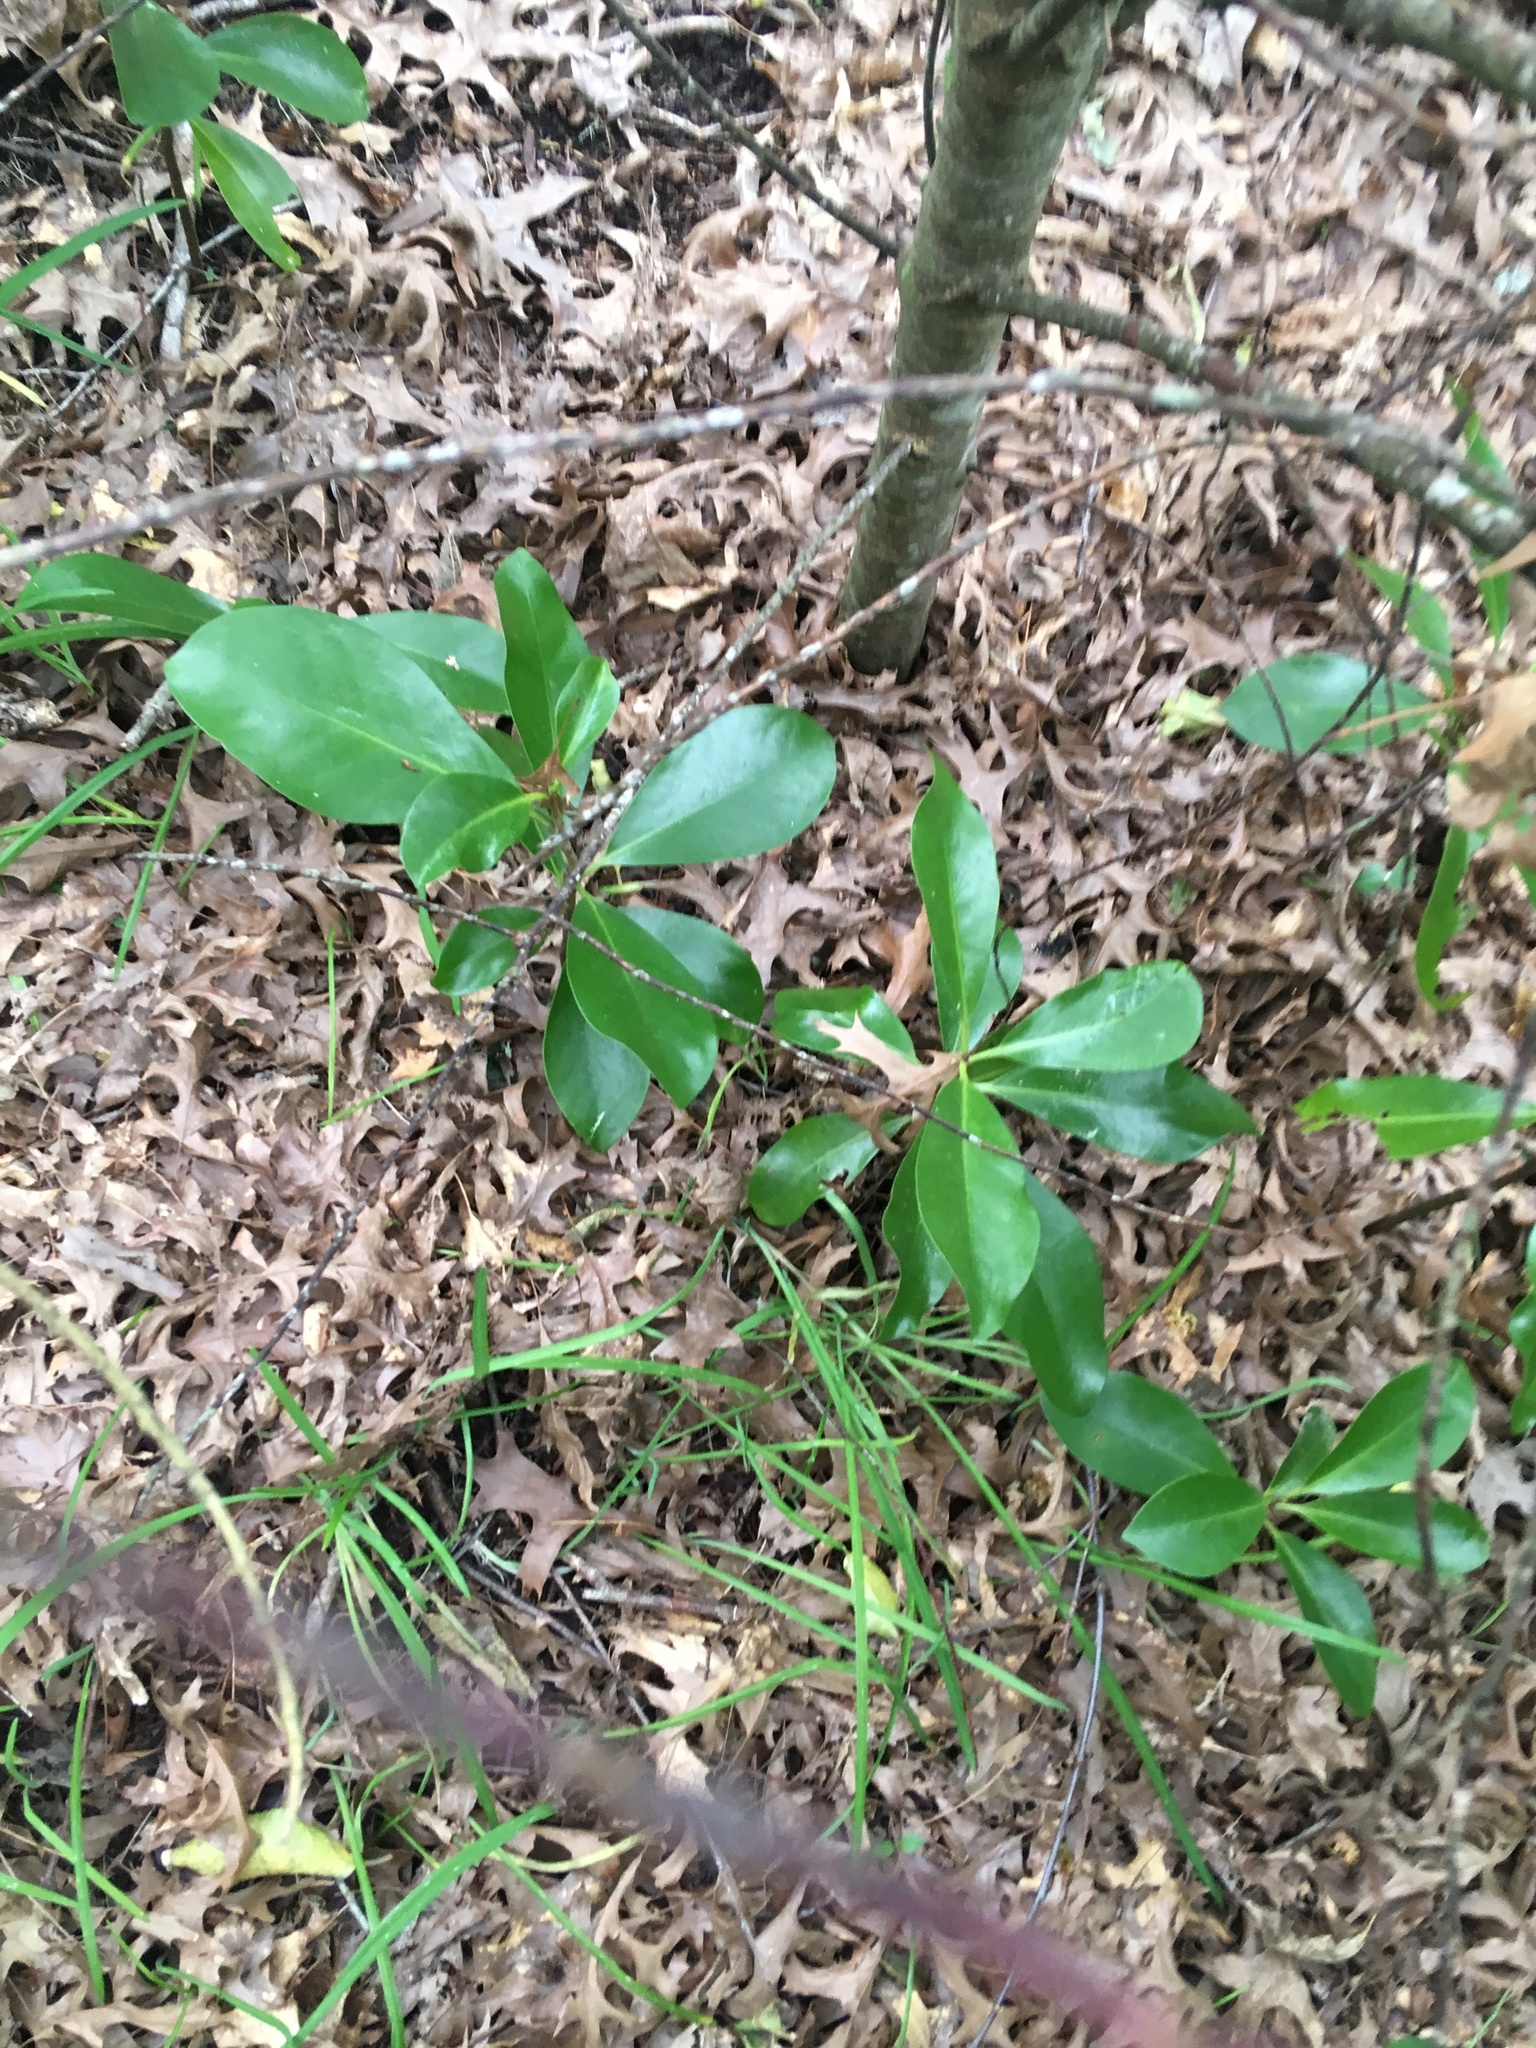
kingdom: Plantae
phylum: Tracheophyta
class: Magnoliopsida
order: Cucurbitales
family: Corynocarpaceae
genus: Corynocarpus
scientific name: Corynocarpus laevigatus
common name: New zealand laurel
